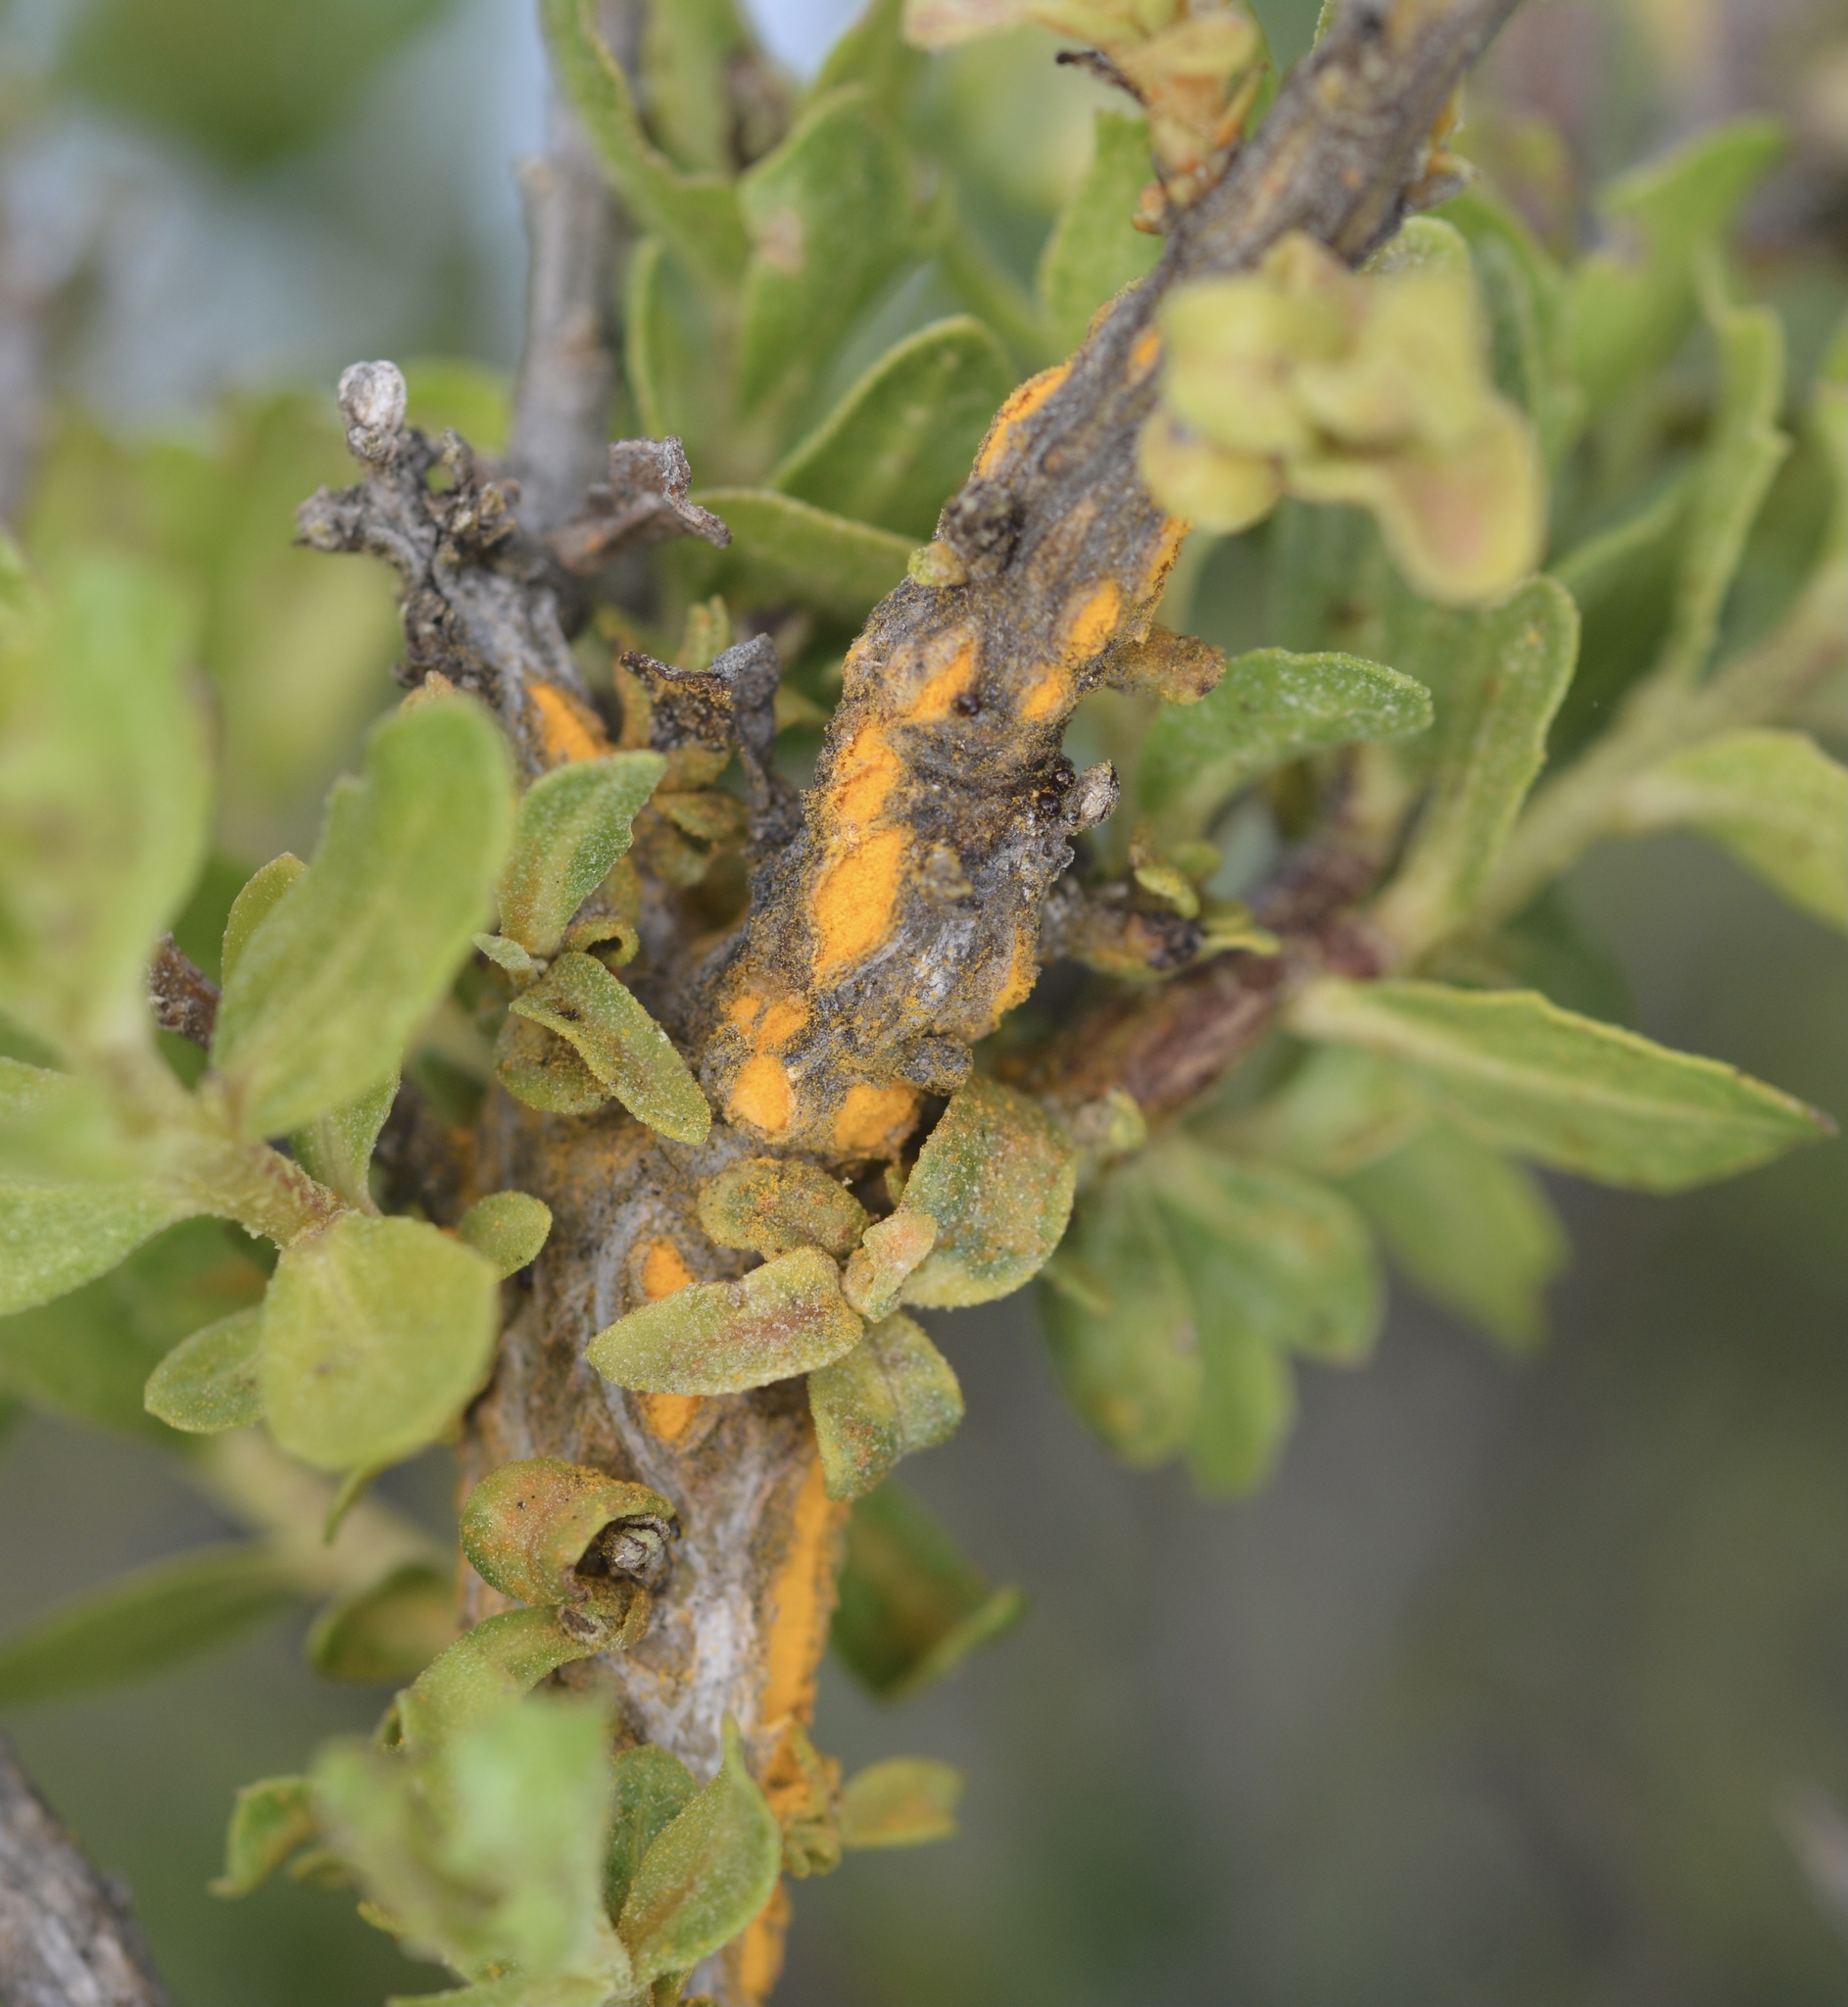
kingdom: Fungi
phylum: Basidiomycota
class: Pucciniomycetes
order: Pucciniales
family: Pucciniaceae
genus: Eriosporangium
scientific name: Eriosporangium evadens
